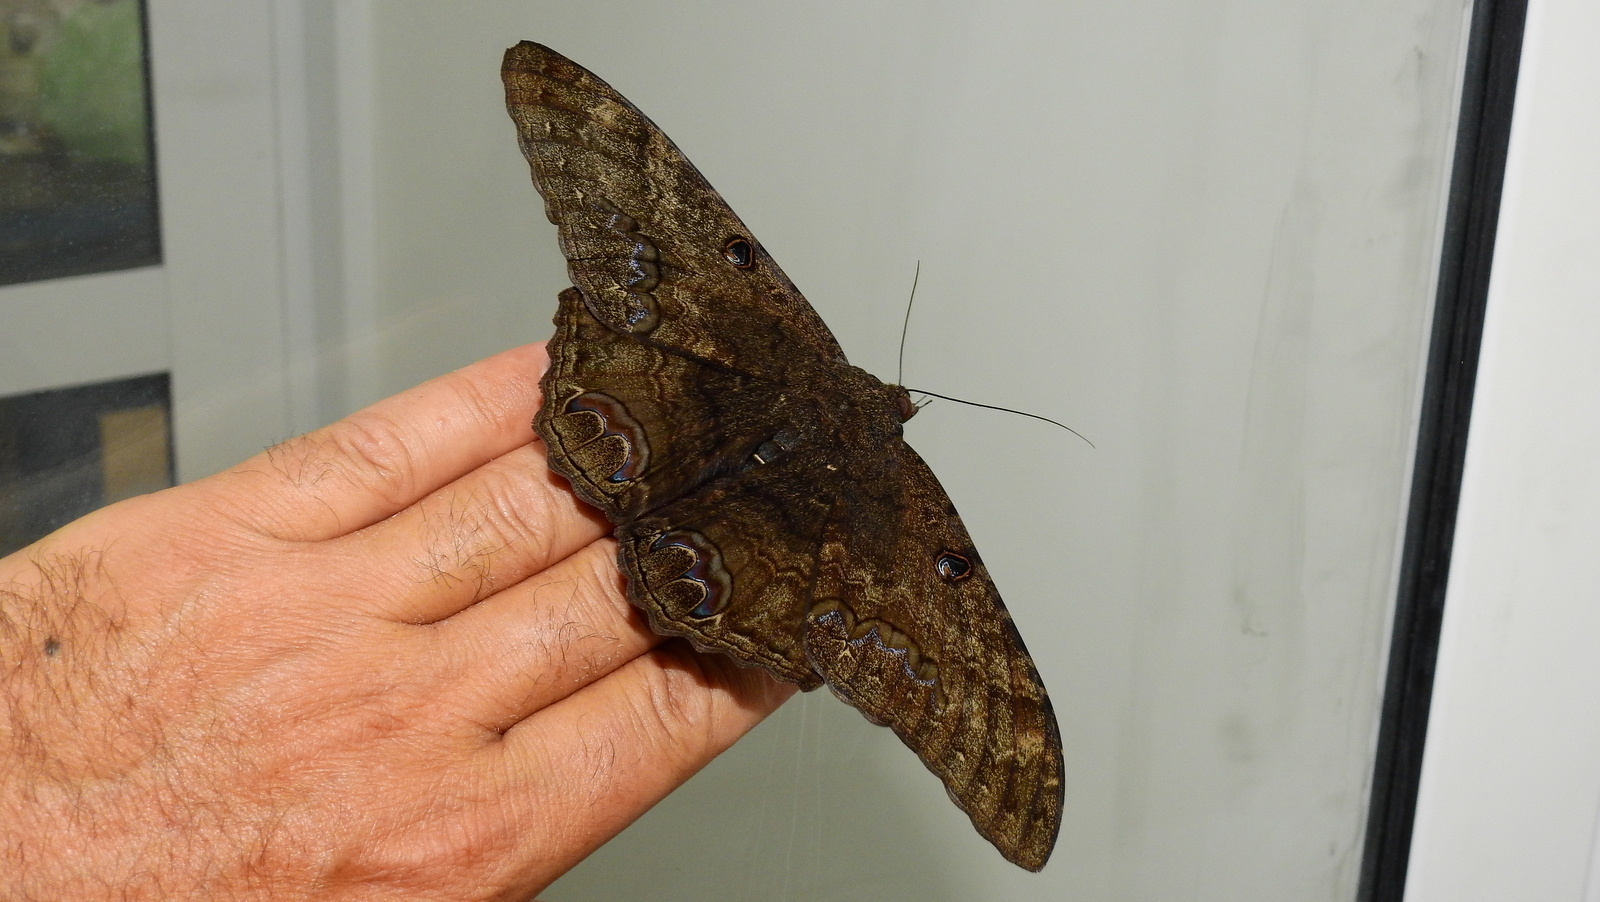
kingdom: Animalia
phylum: Arthropoda
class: Insecta
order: Lepidoptera
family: Erebidae
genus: Ascalapha
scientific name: Ascalapha odorata
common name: Black witch
